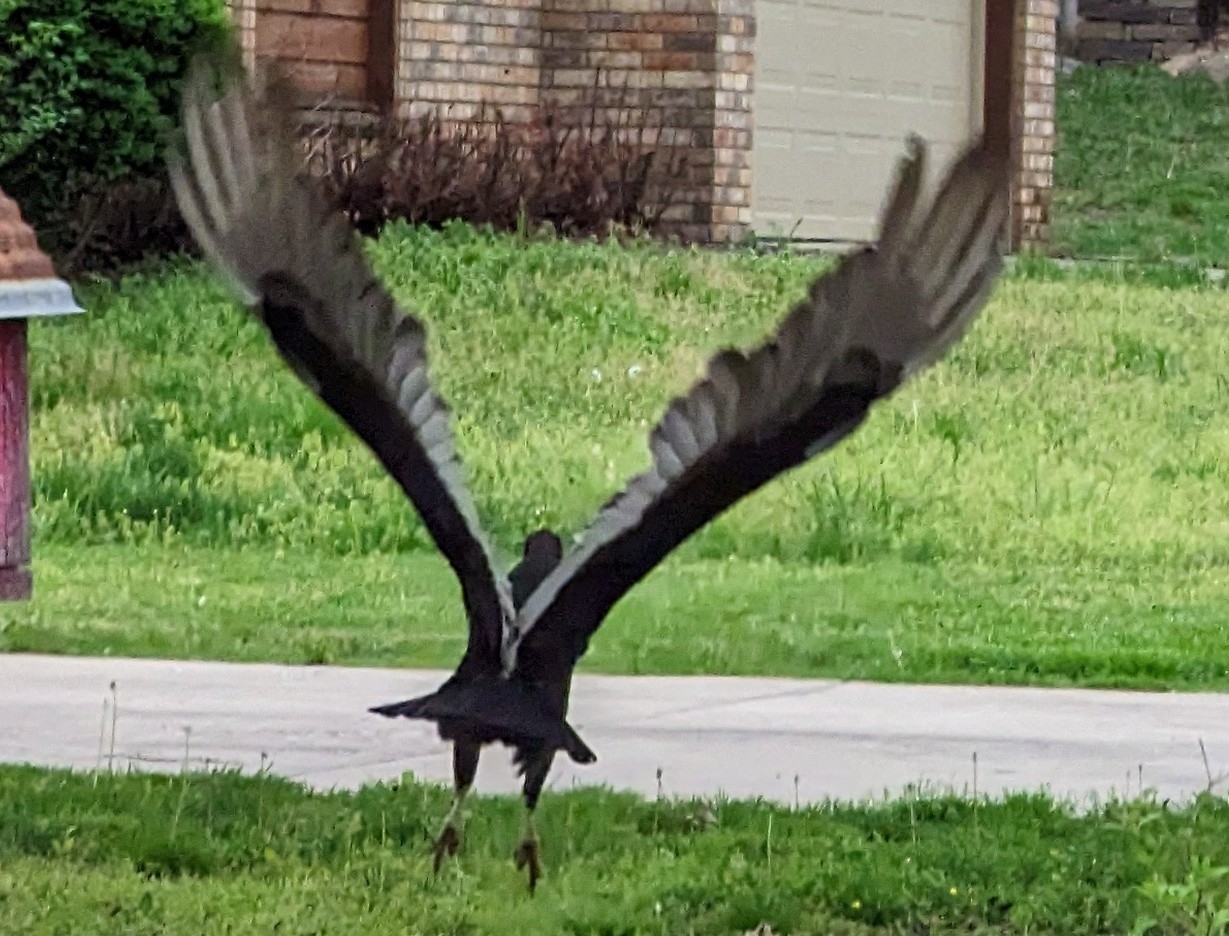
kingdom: Animalia
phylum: Chordata
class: Aves
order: Accipitriformes
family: Cathartidae
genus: Cathartes
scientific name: Cathartes aura
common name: Turkey vulture
